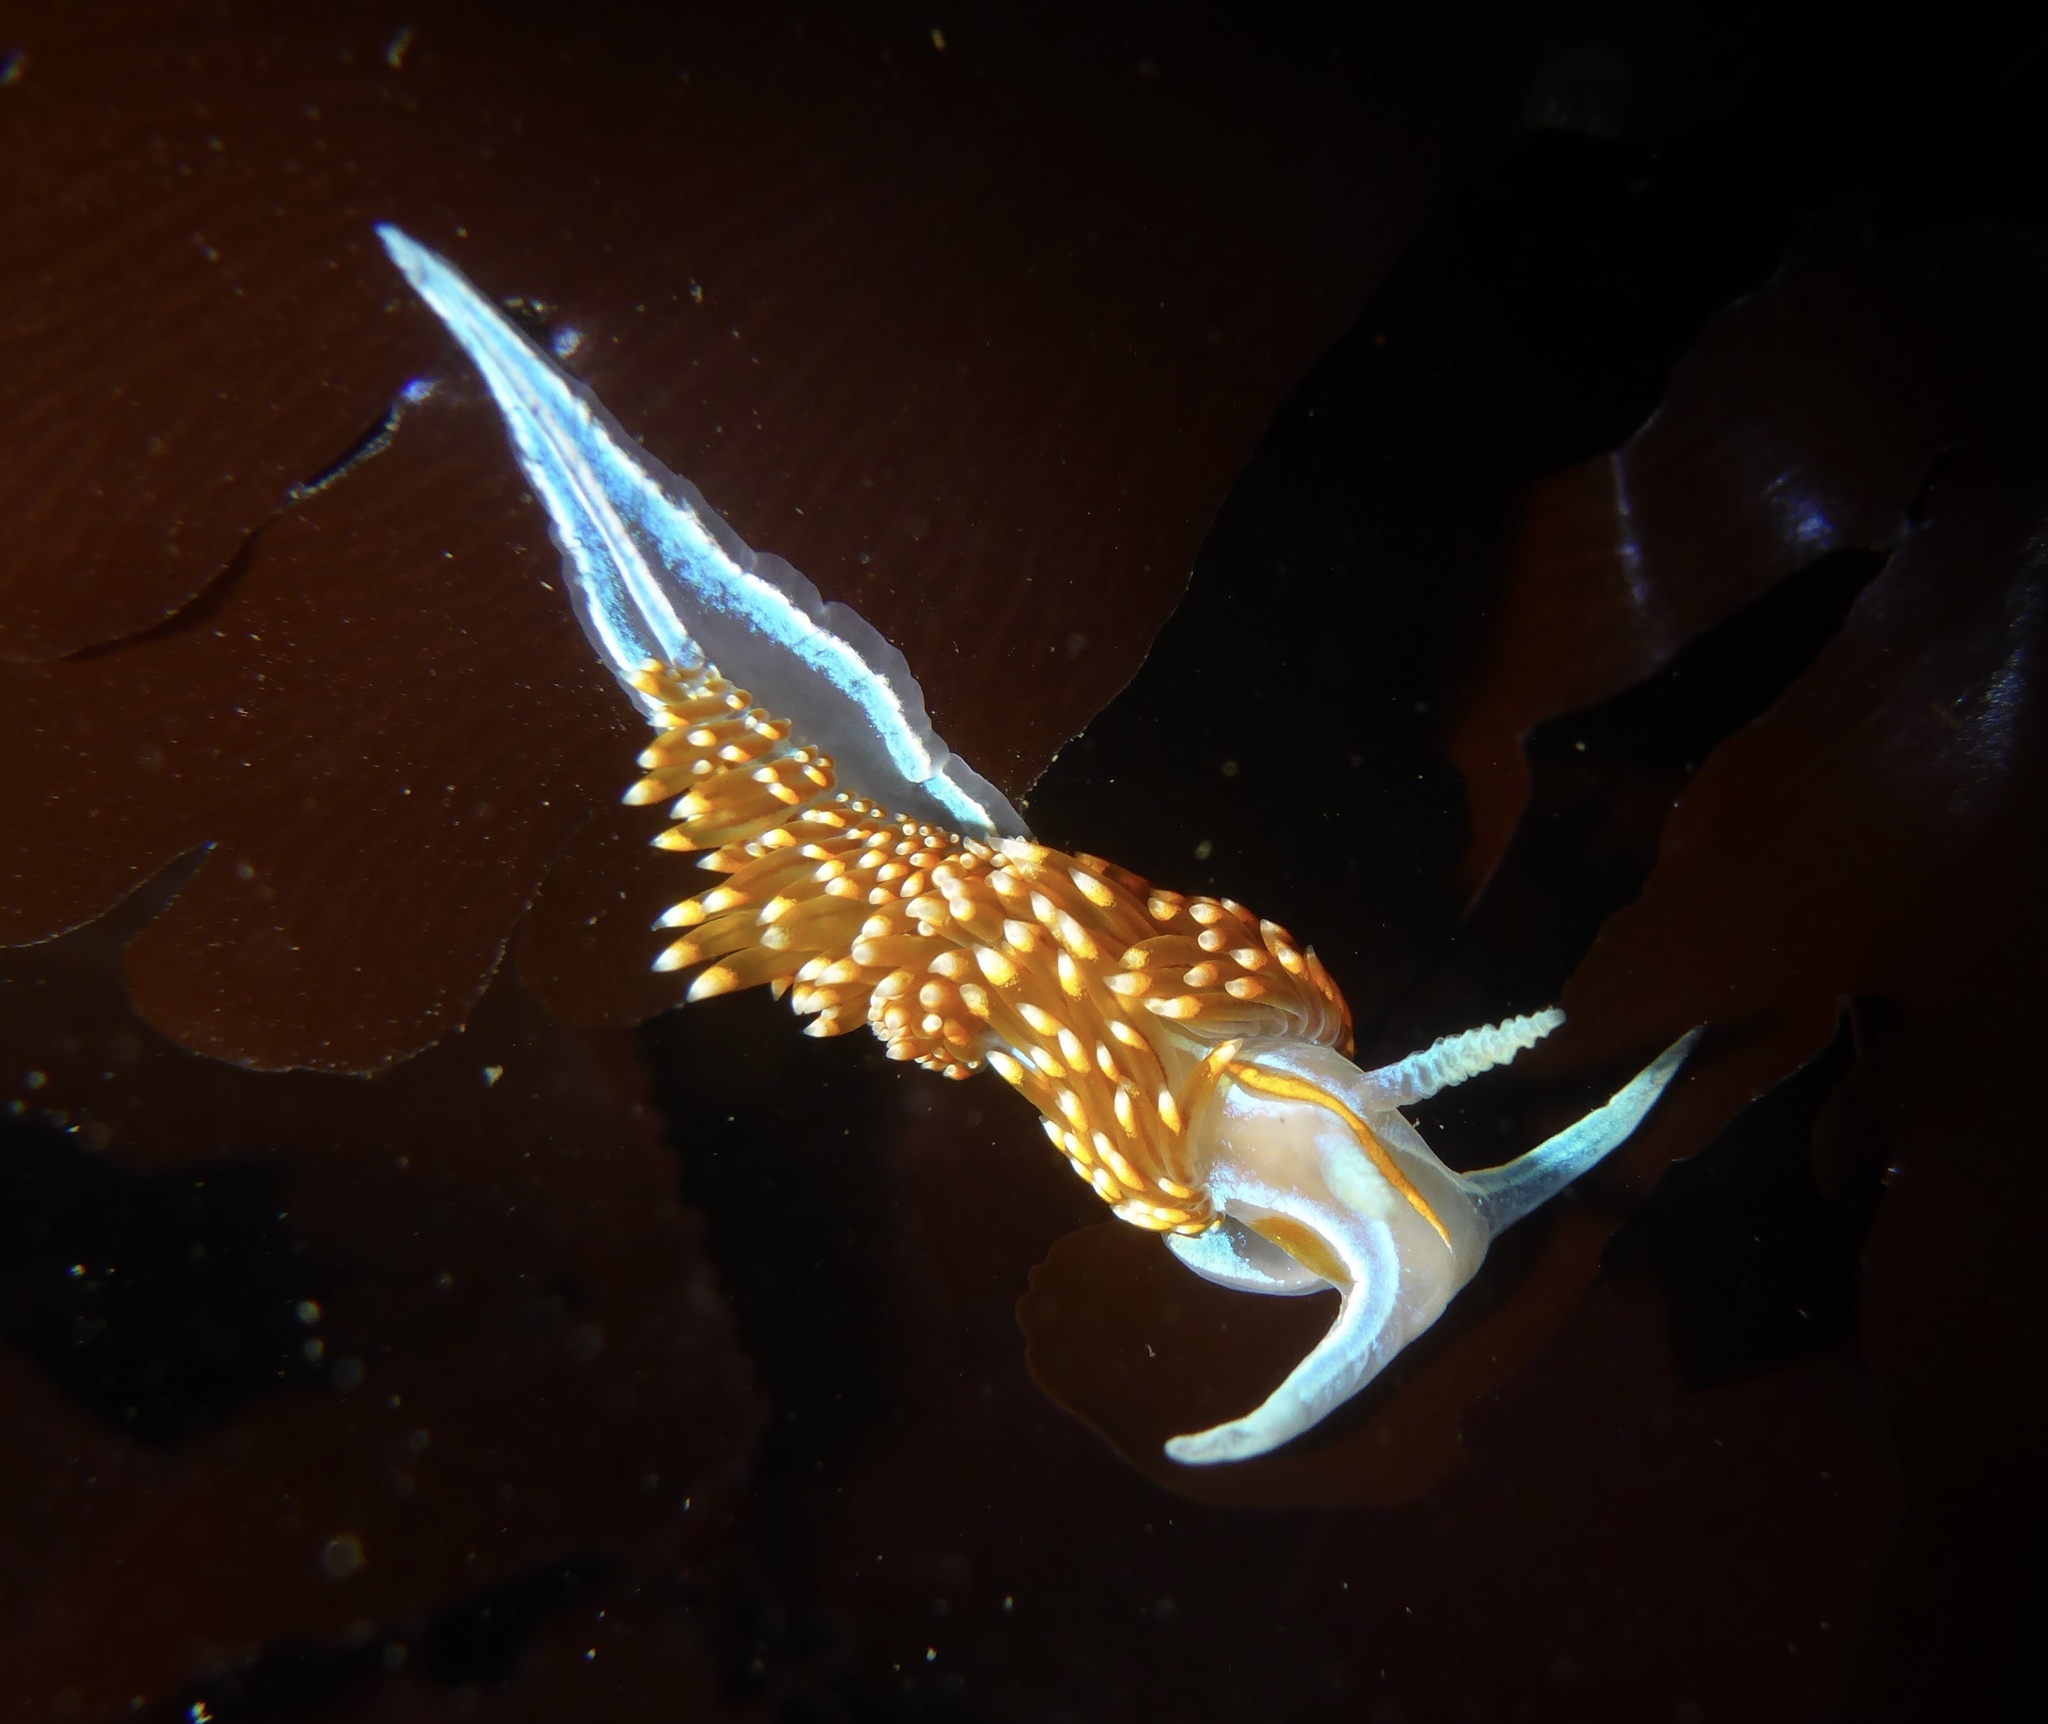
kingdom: Animalia
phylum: Mollusca
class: Gastropoda
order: Nudibranchia
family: Myrrhinidae
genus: Hermissenda
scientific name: Hermissenda opalescens
